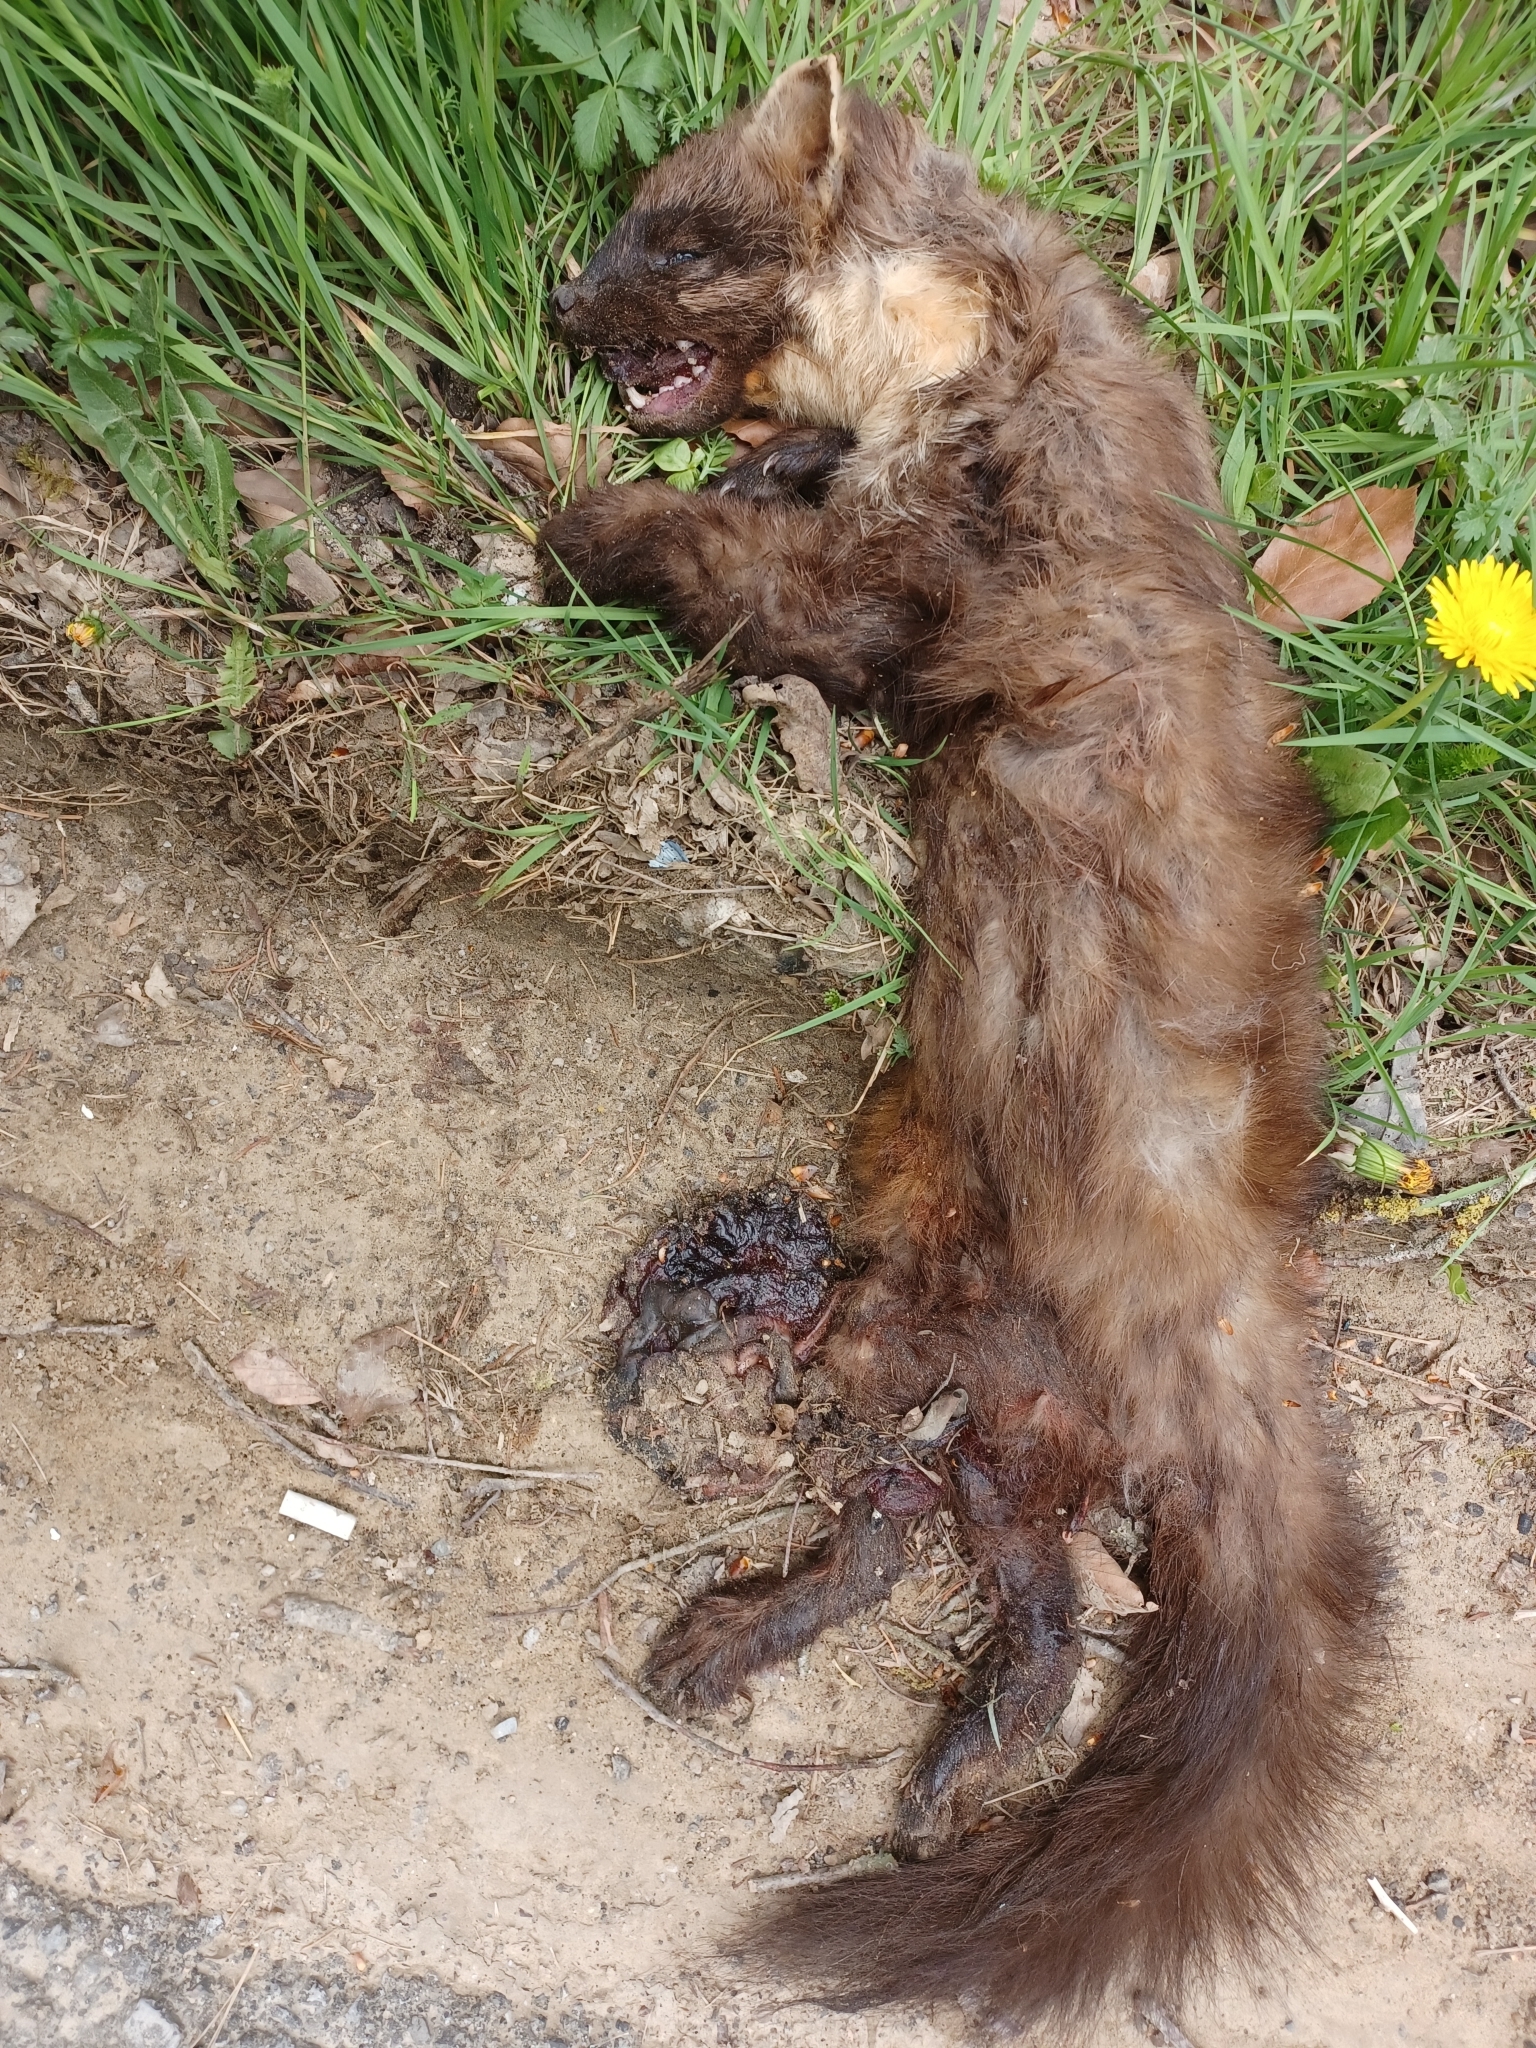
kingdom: Animalia
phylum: Chordata
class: Mammalia
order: Carnivora
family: Mustelidae
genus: Martes
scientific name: Martes martes
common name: European pine marten
